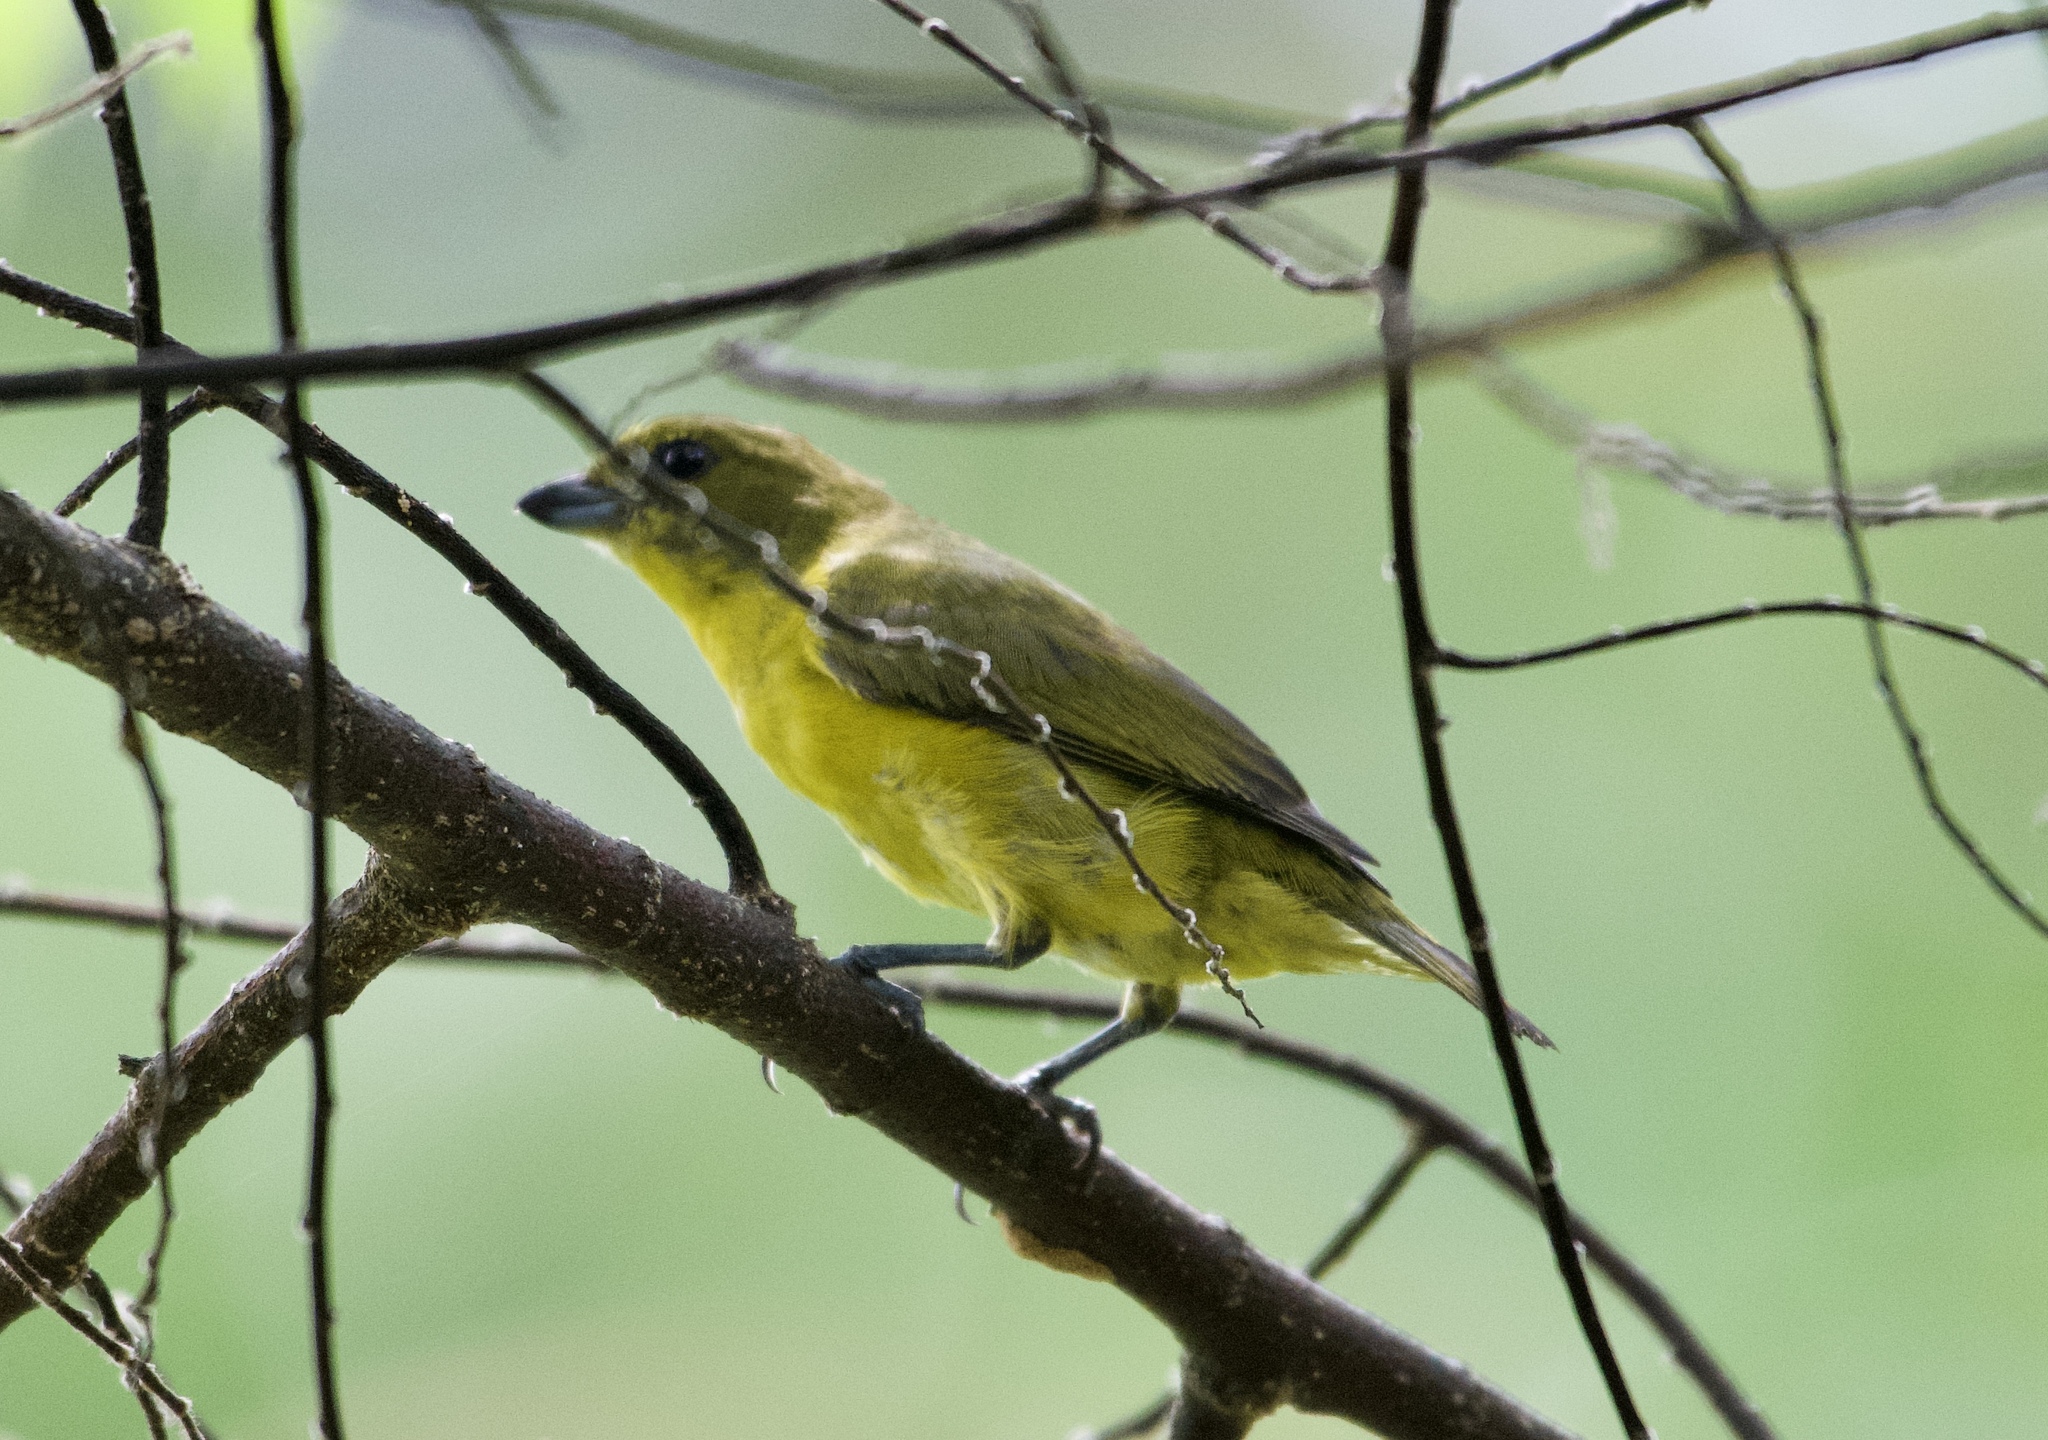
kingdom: Animalia
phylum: Chordata
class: Aves
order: Passeriformes
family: Fringillidae
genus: Euphonia
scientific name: Euphonia laniirostris
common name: Thick-billed euphonia
